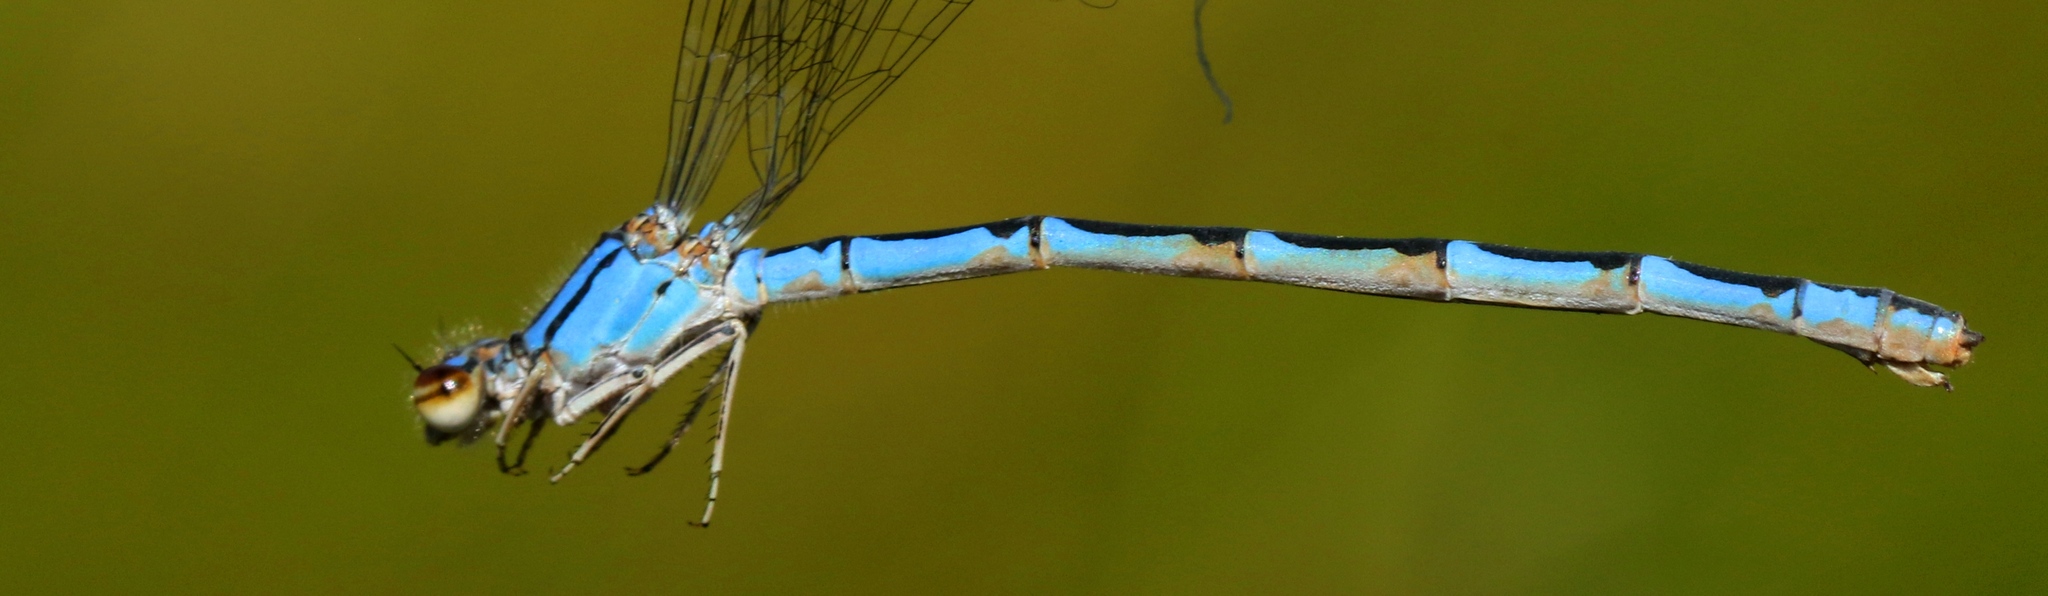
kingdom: Animalia
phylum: Arthropoda
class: Insecta
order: Odonata
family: Coenagrionidae
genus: Enallagma
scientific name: Enallagma anna
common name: River bluet
